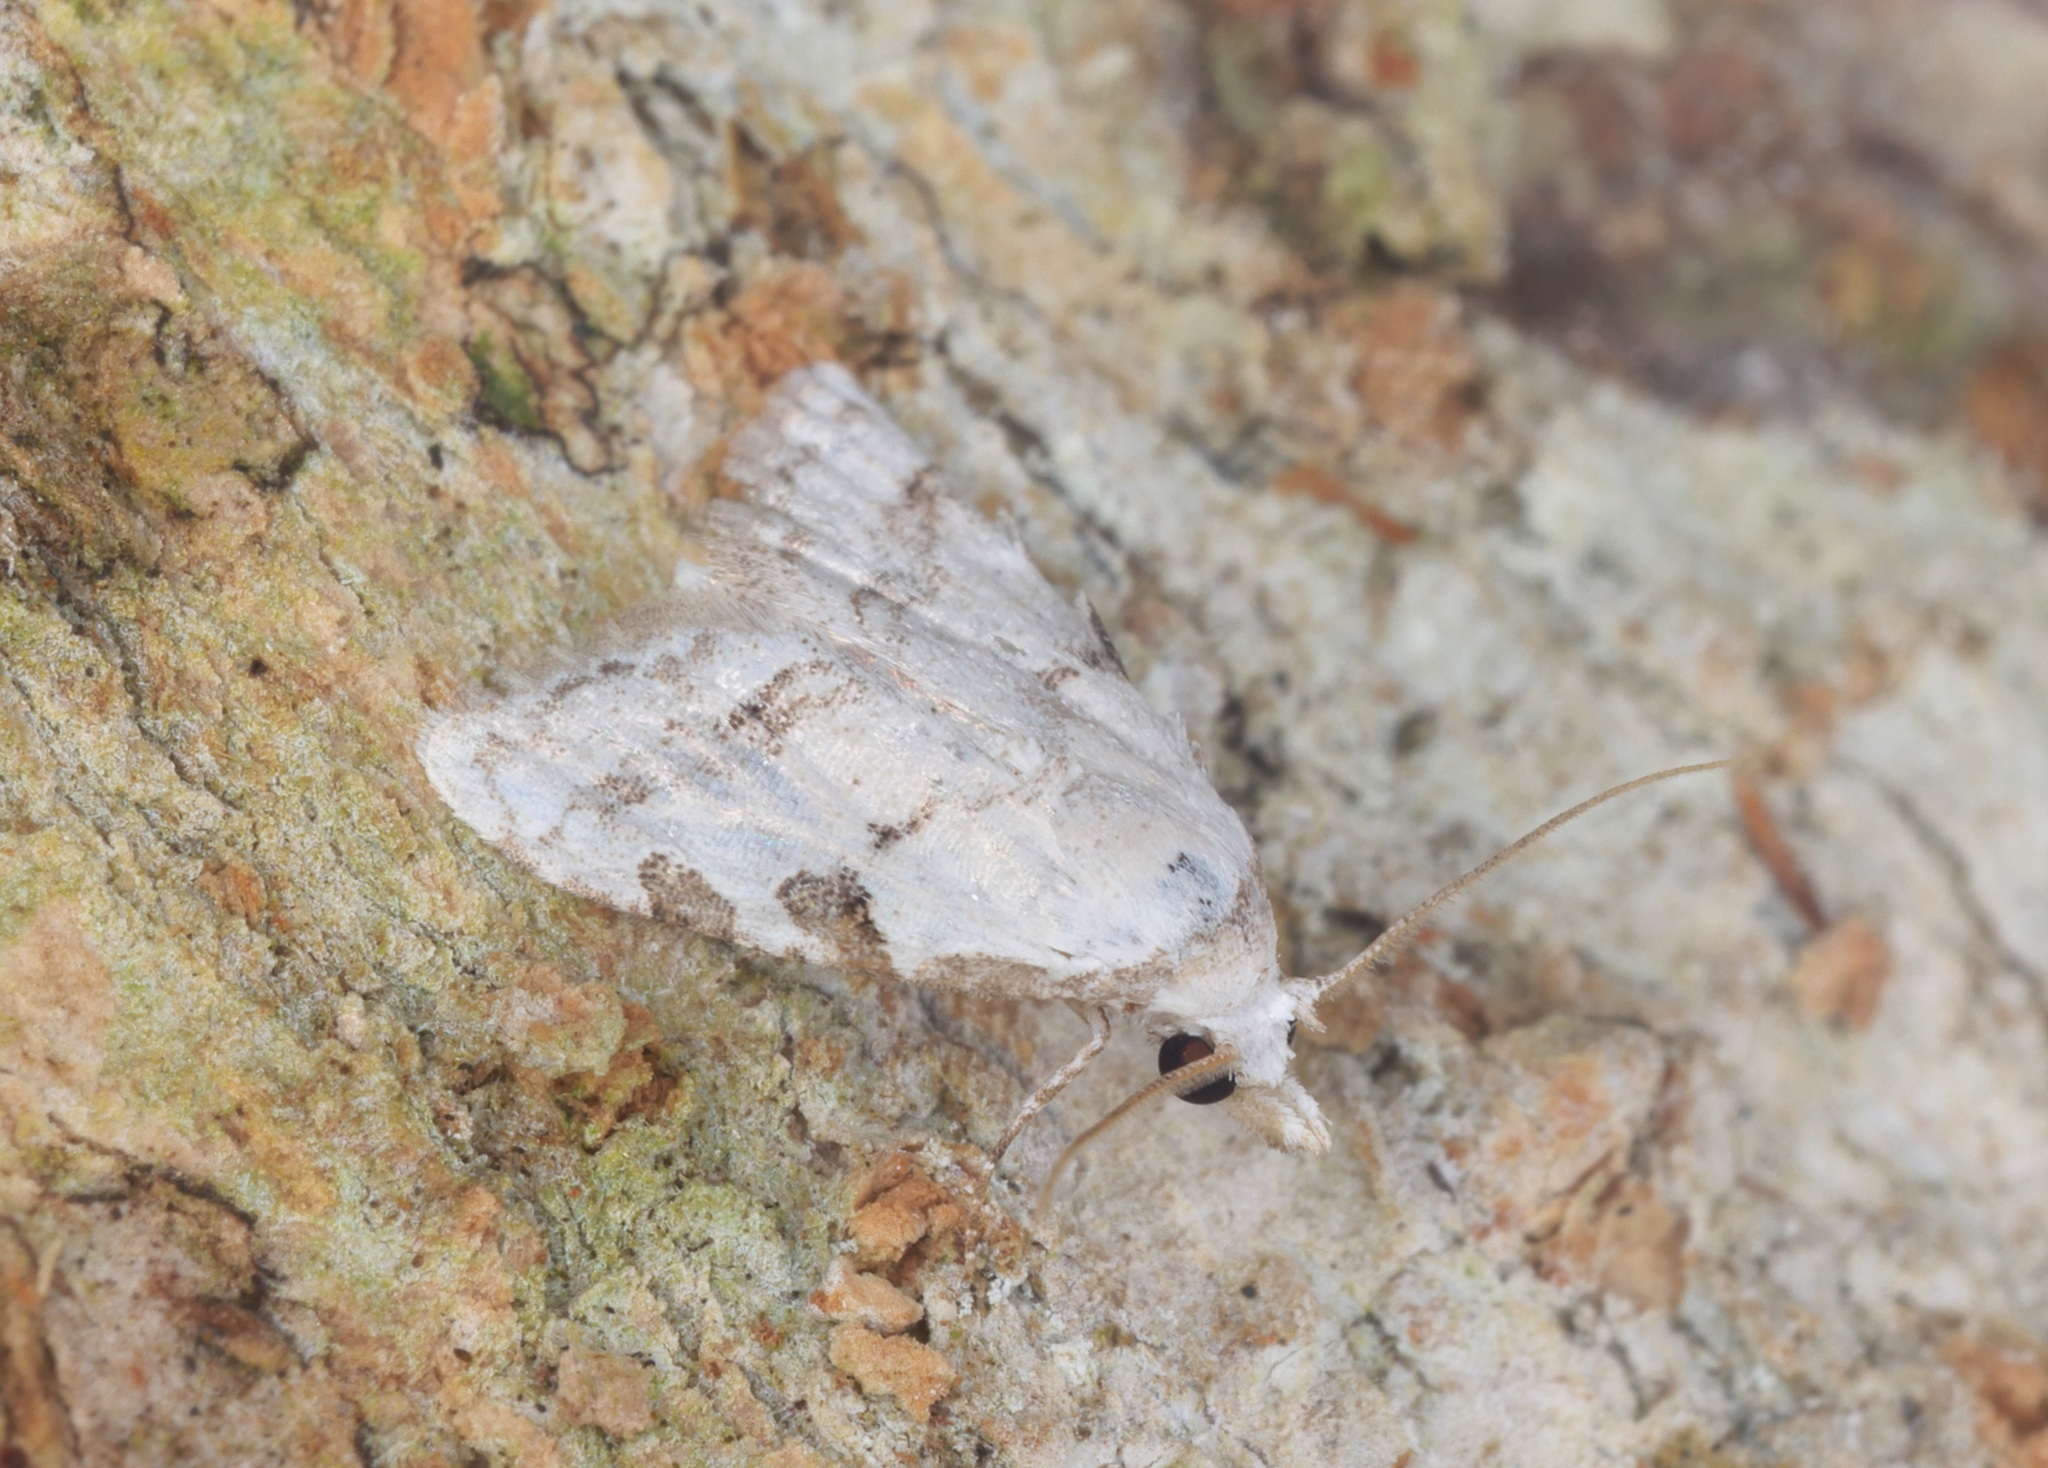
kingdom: Animalia
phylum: Arthropoda
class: Insecta
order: Lepidoptera
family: Nolidae
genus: Nola
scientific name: Nola pascua
